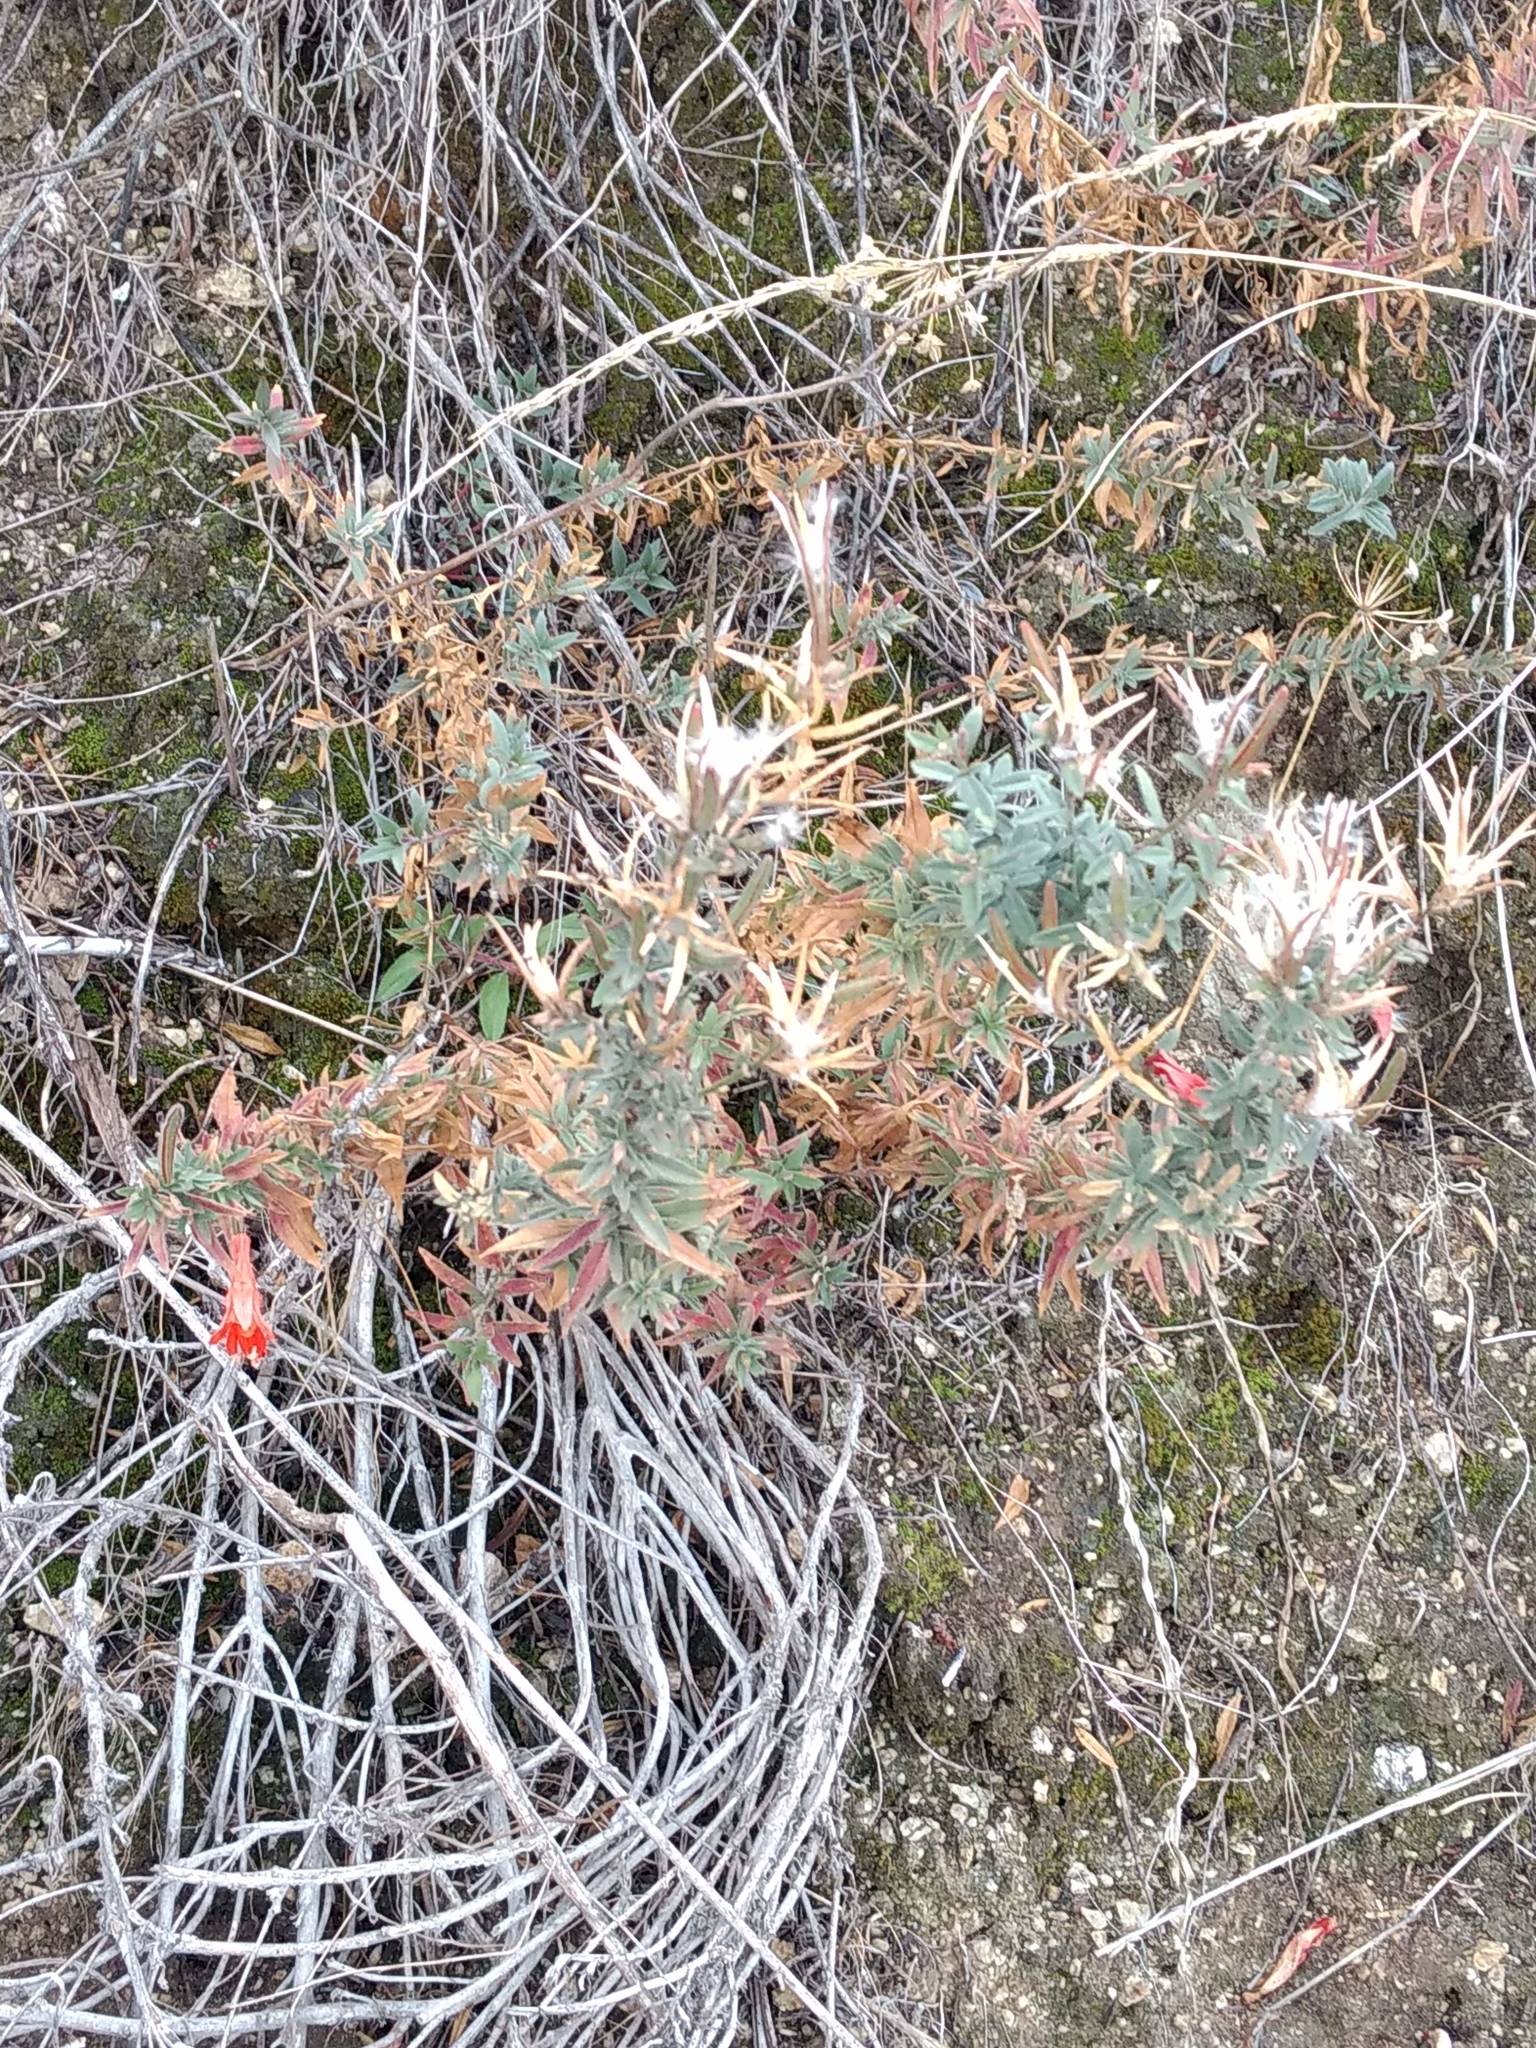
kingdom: Plantae
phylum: Tracheophyta
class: Magnoliopsida
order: Myrtales
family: Onagraceae
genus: Epilobium
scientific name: Epilobium canum
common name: California-fuchsia
